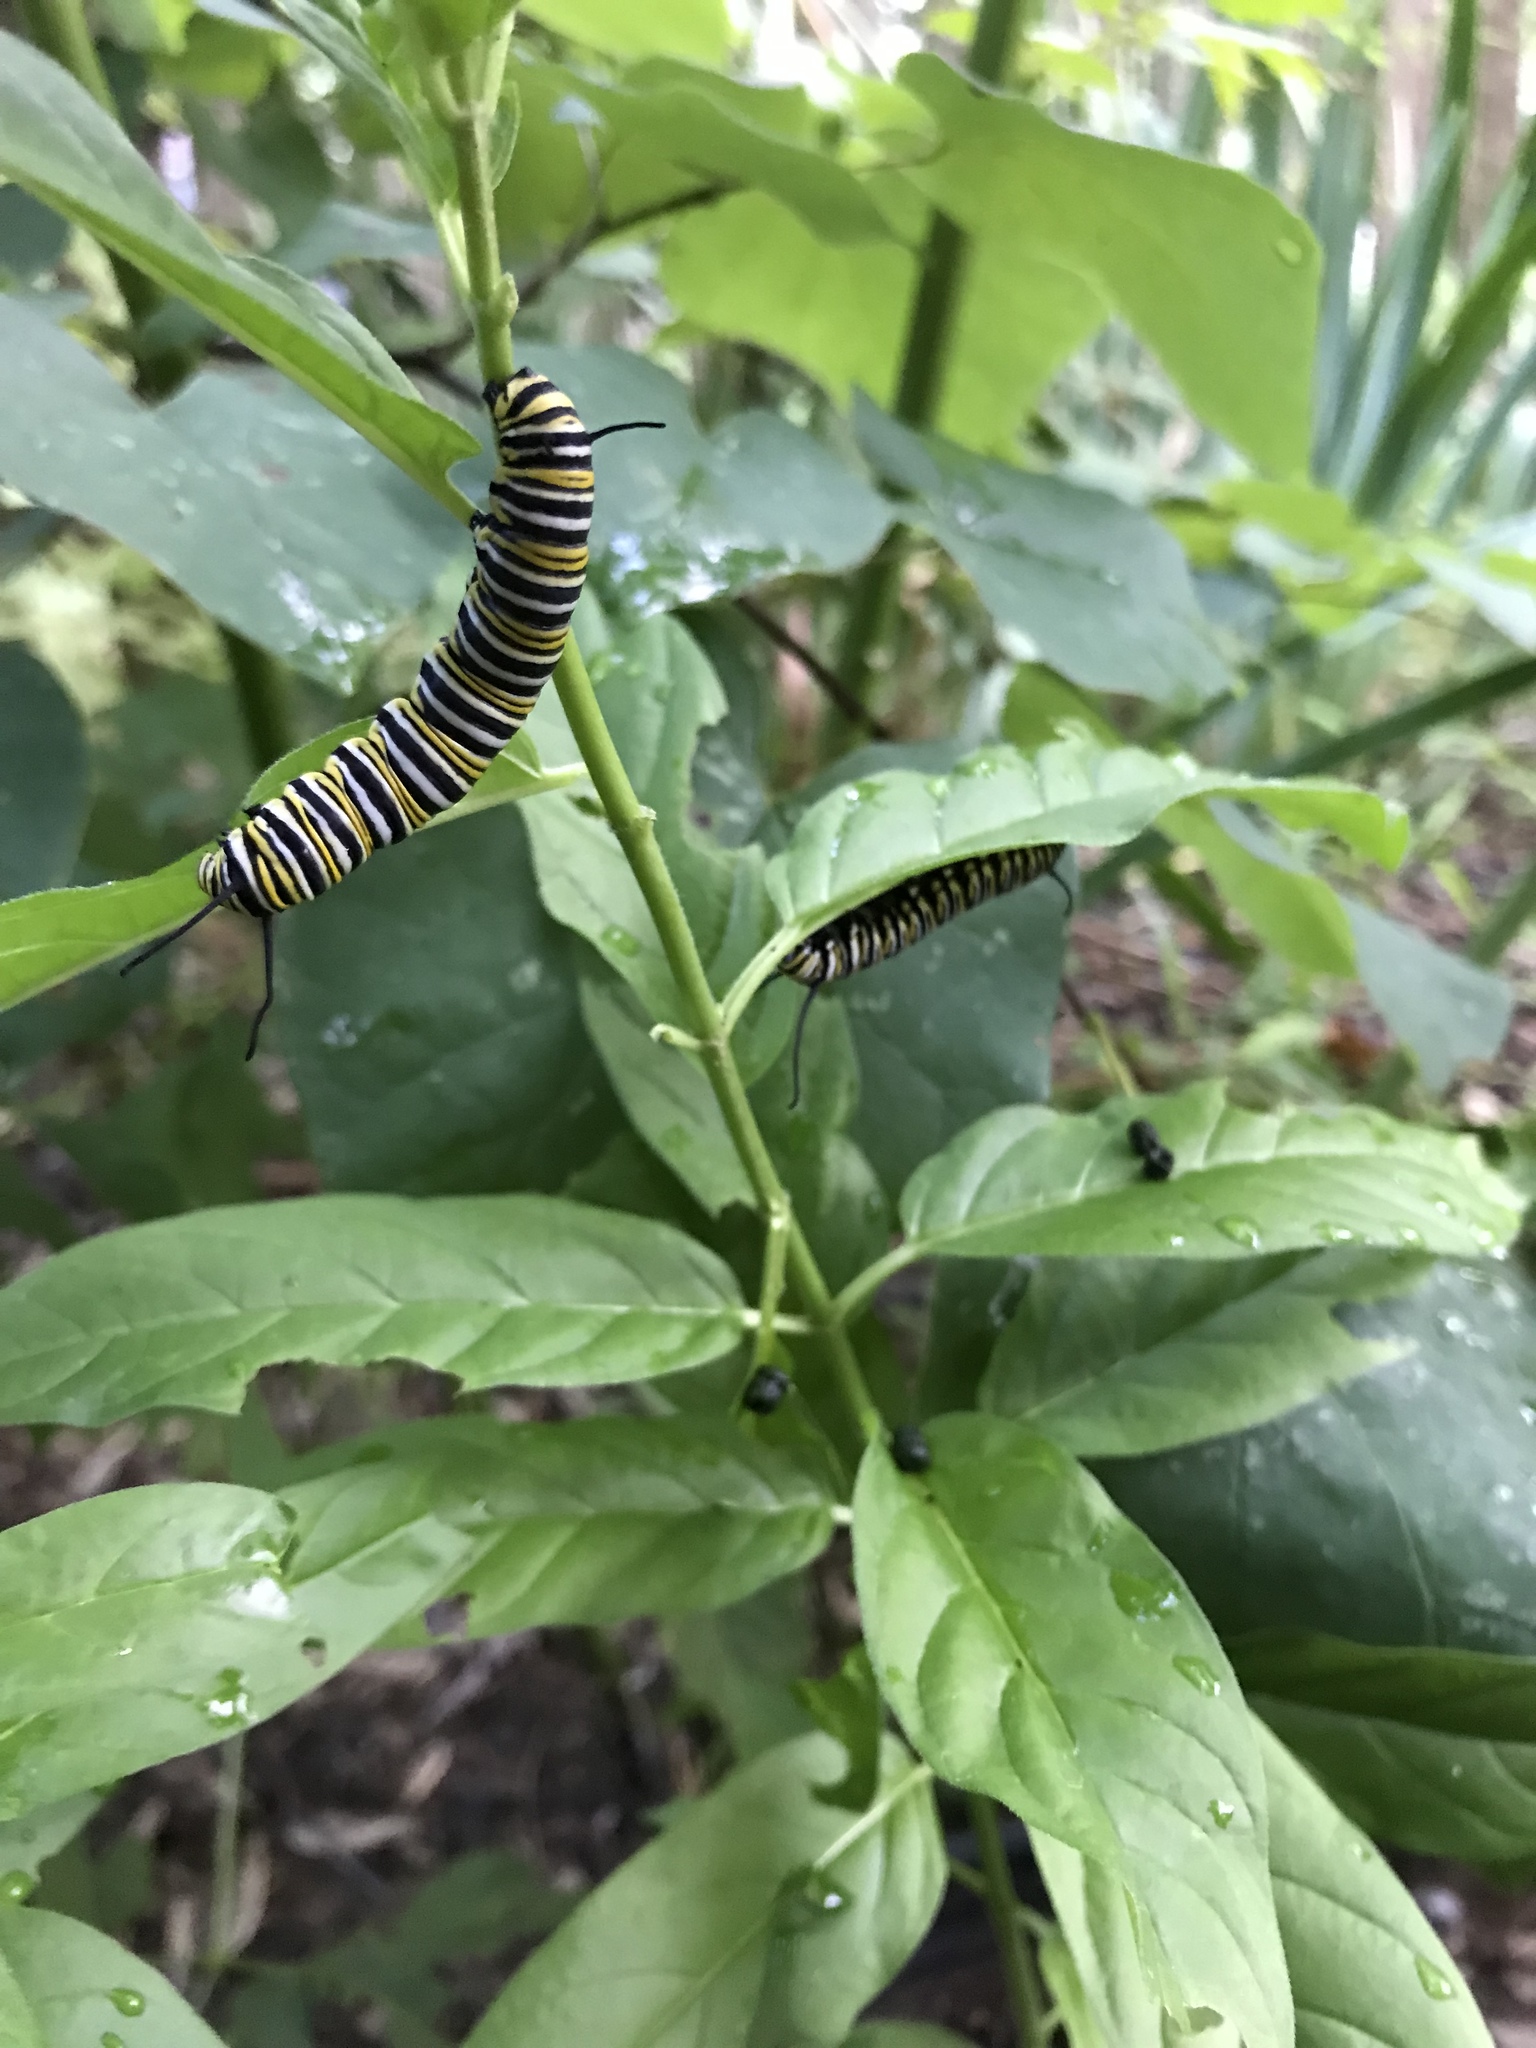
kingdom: Animalia
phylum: Arthropoda
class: Insecta
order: Lepidoptera
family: Nymphalidae
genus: Danaus
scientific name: Danaus plexippus
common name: Monarch
